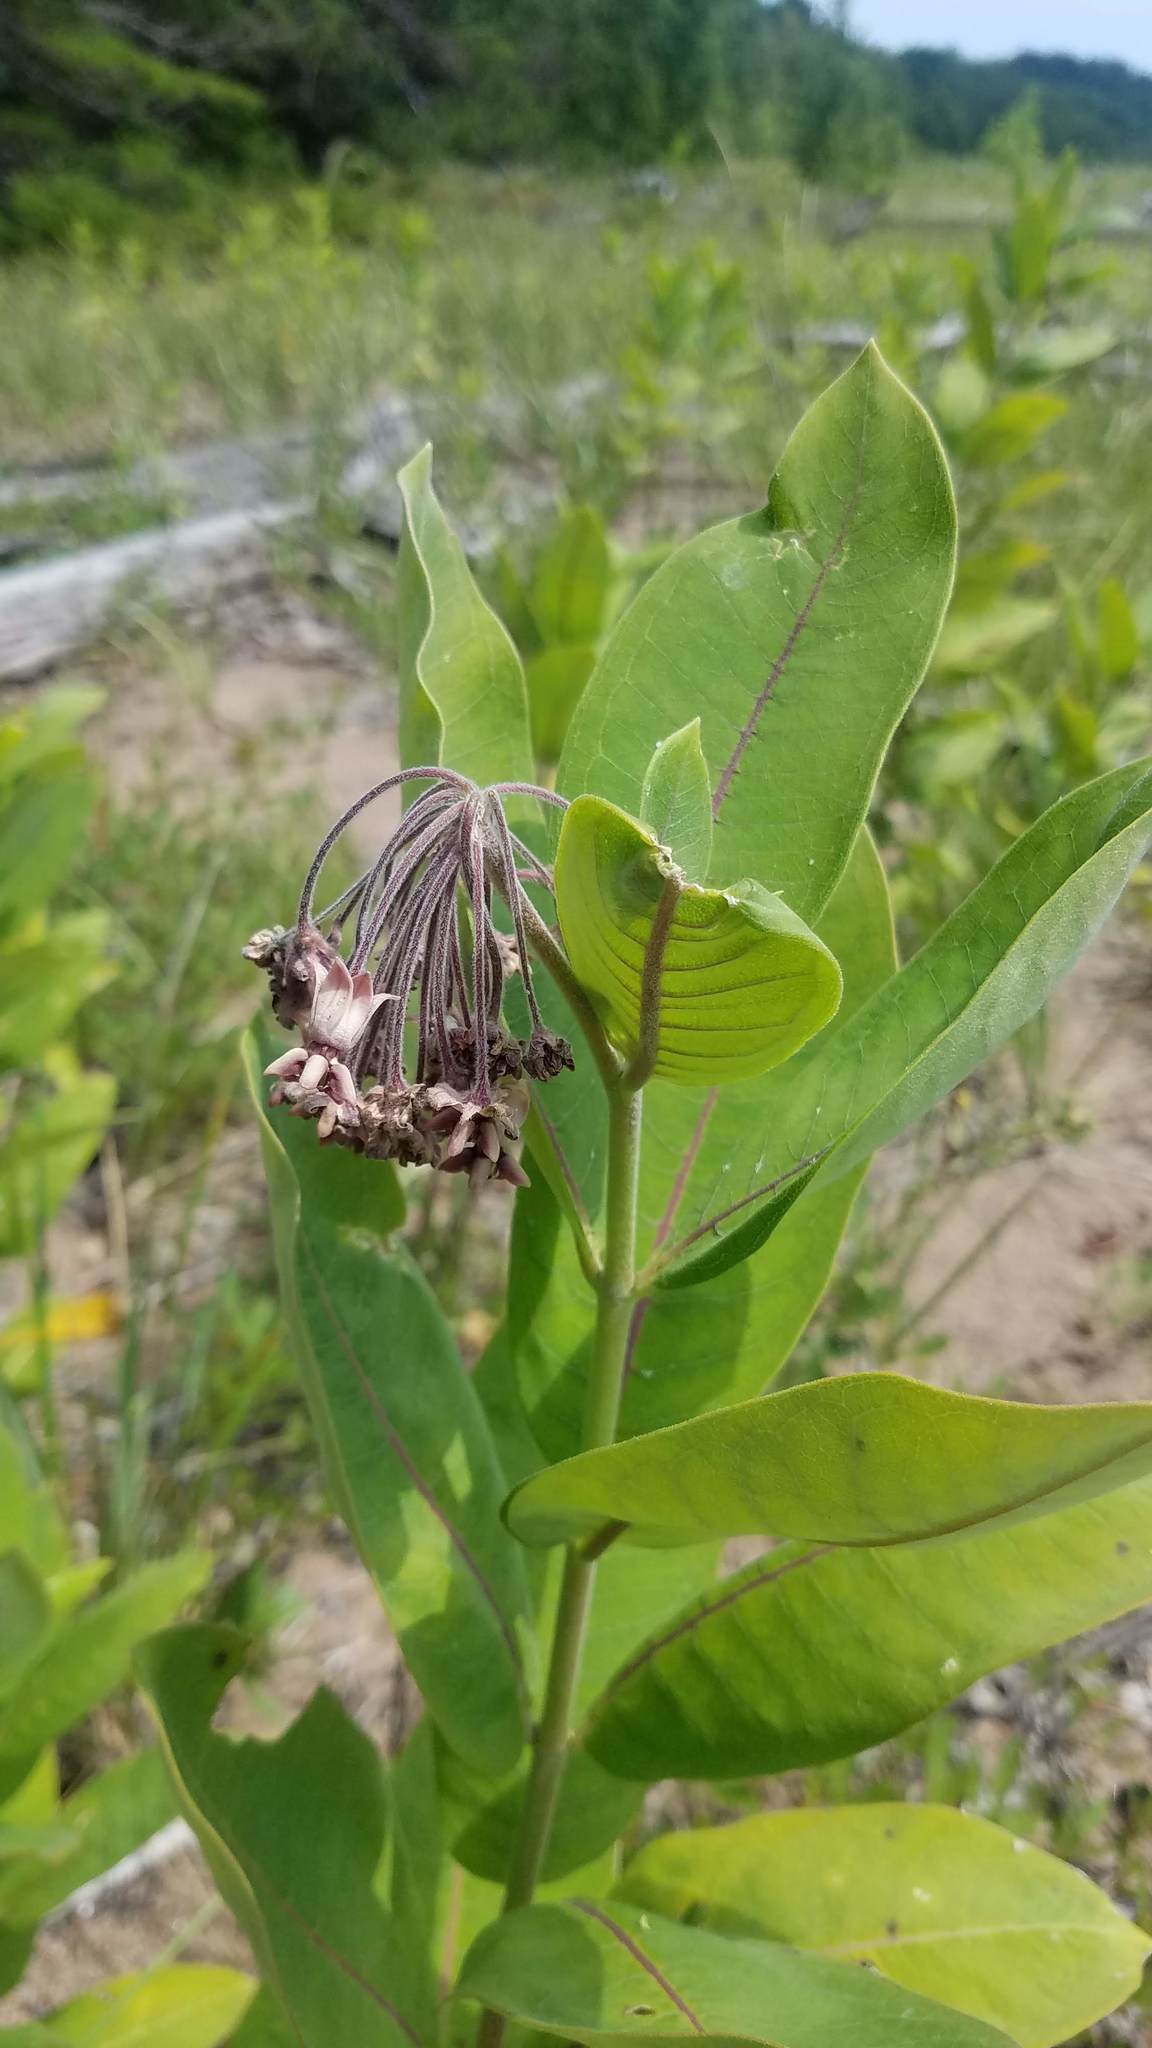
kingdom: Plantae
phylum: Tracheophyta
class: Magnoliopsida
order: Gentianales
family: Apocynaceae
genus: Asclepias
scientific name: Asclepias syriaca
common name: Common milkweed
